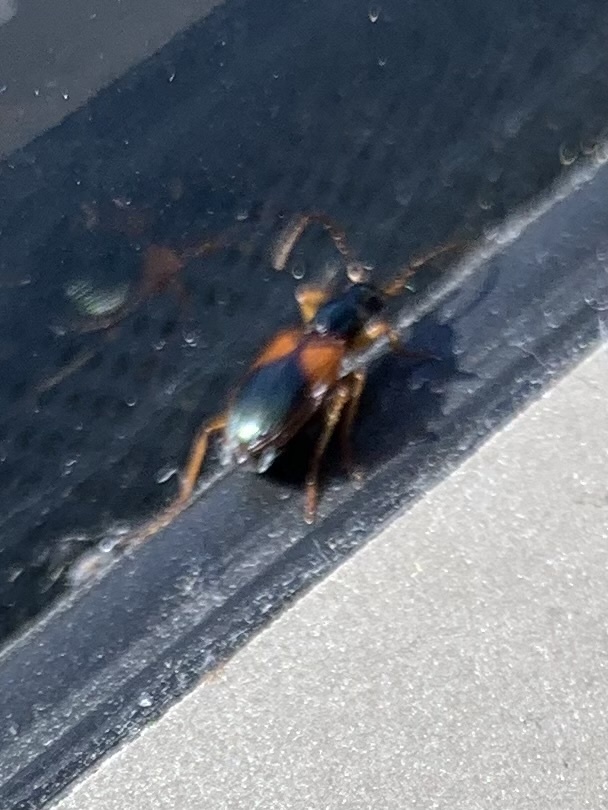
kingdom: Animalia
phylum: Arthropoda
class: Insecta
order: Coleoptera
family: Carabidae
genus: Anchomenus
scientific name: Anchomenus dorsalis
